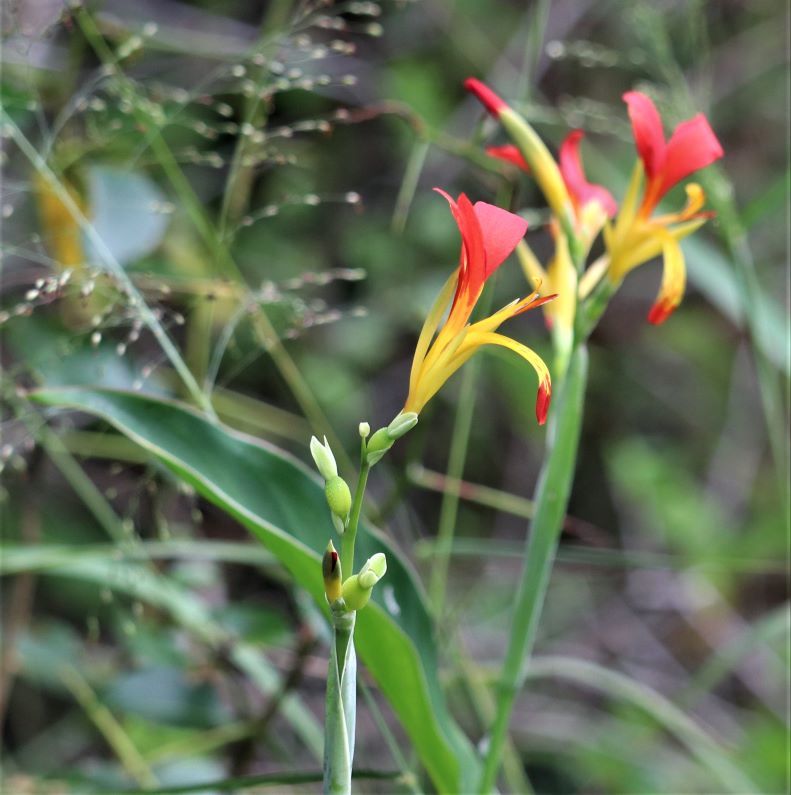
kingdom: Plantae
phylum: Tracheophyta
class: Liliopsida
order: Zingiberales
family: Cannaceae
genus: Canna
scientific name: Canna indica
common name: Indian shot
